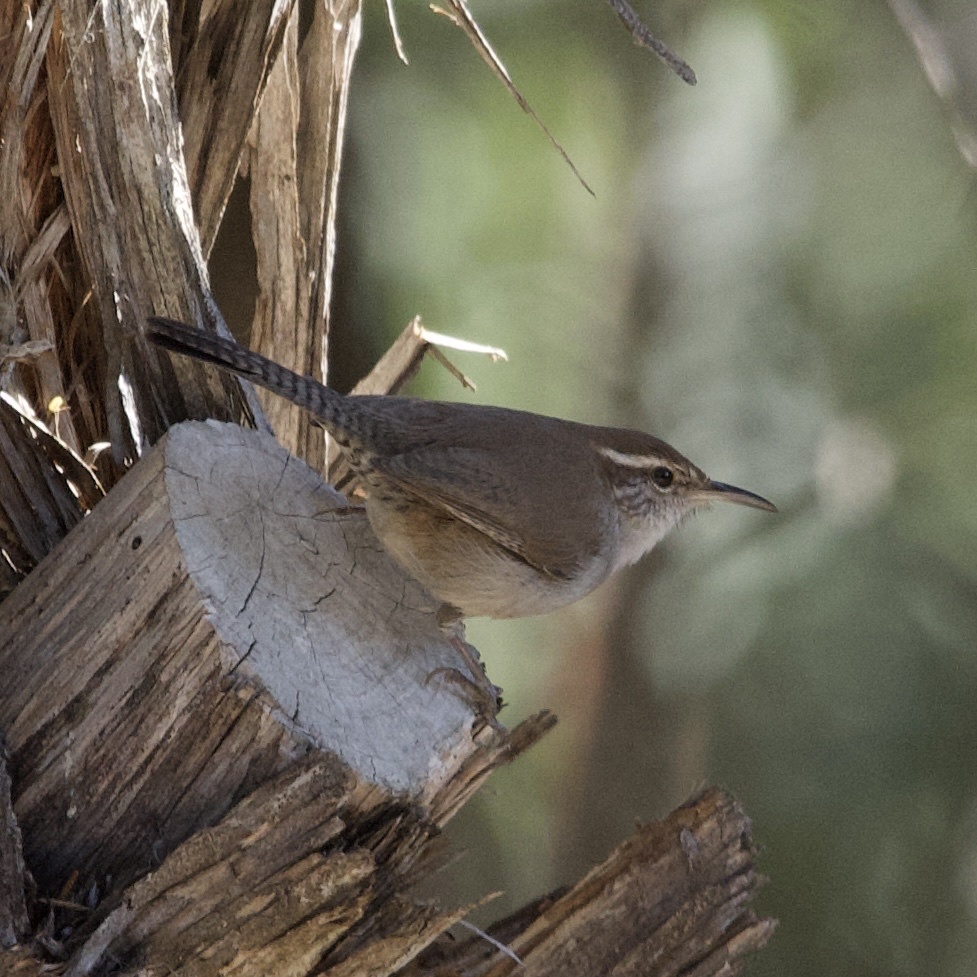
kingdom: Animalia
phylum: Chordata
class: Aves
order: Passeriformes
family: Troglodytidae
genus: Thryomanes
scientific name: Thryomanes bewickii
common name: Bewick's wren
